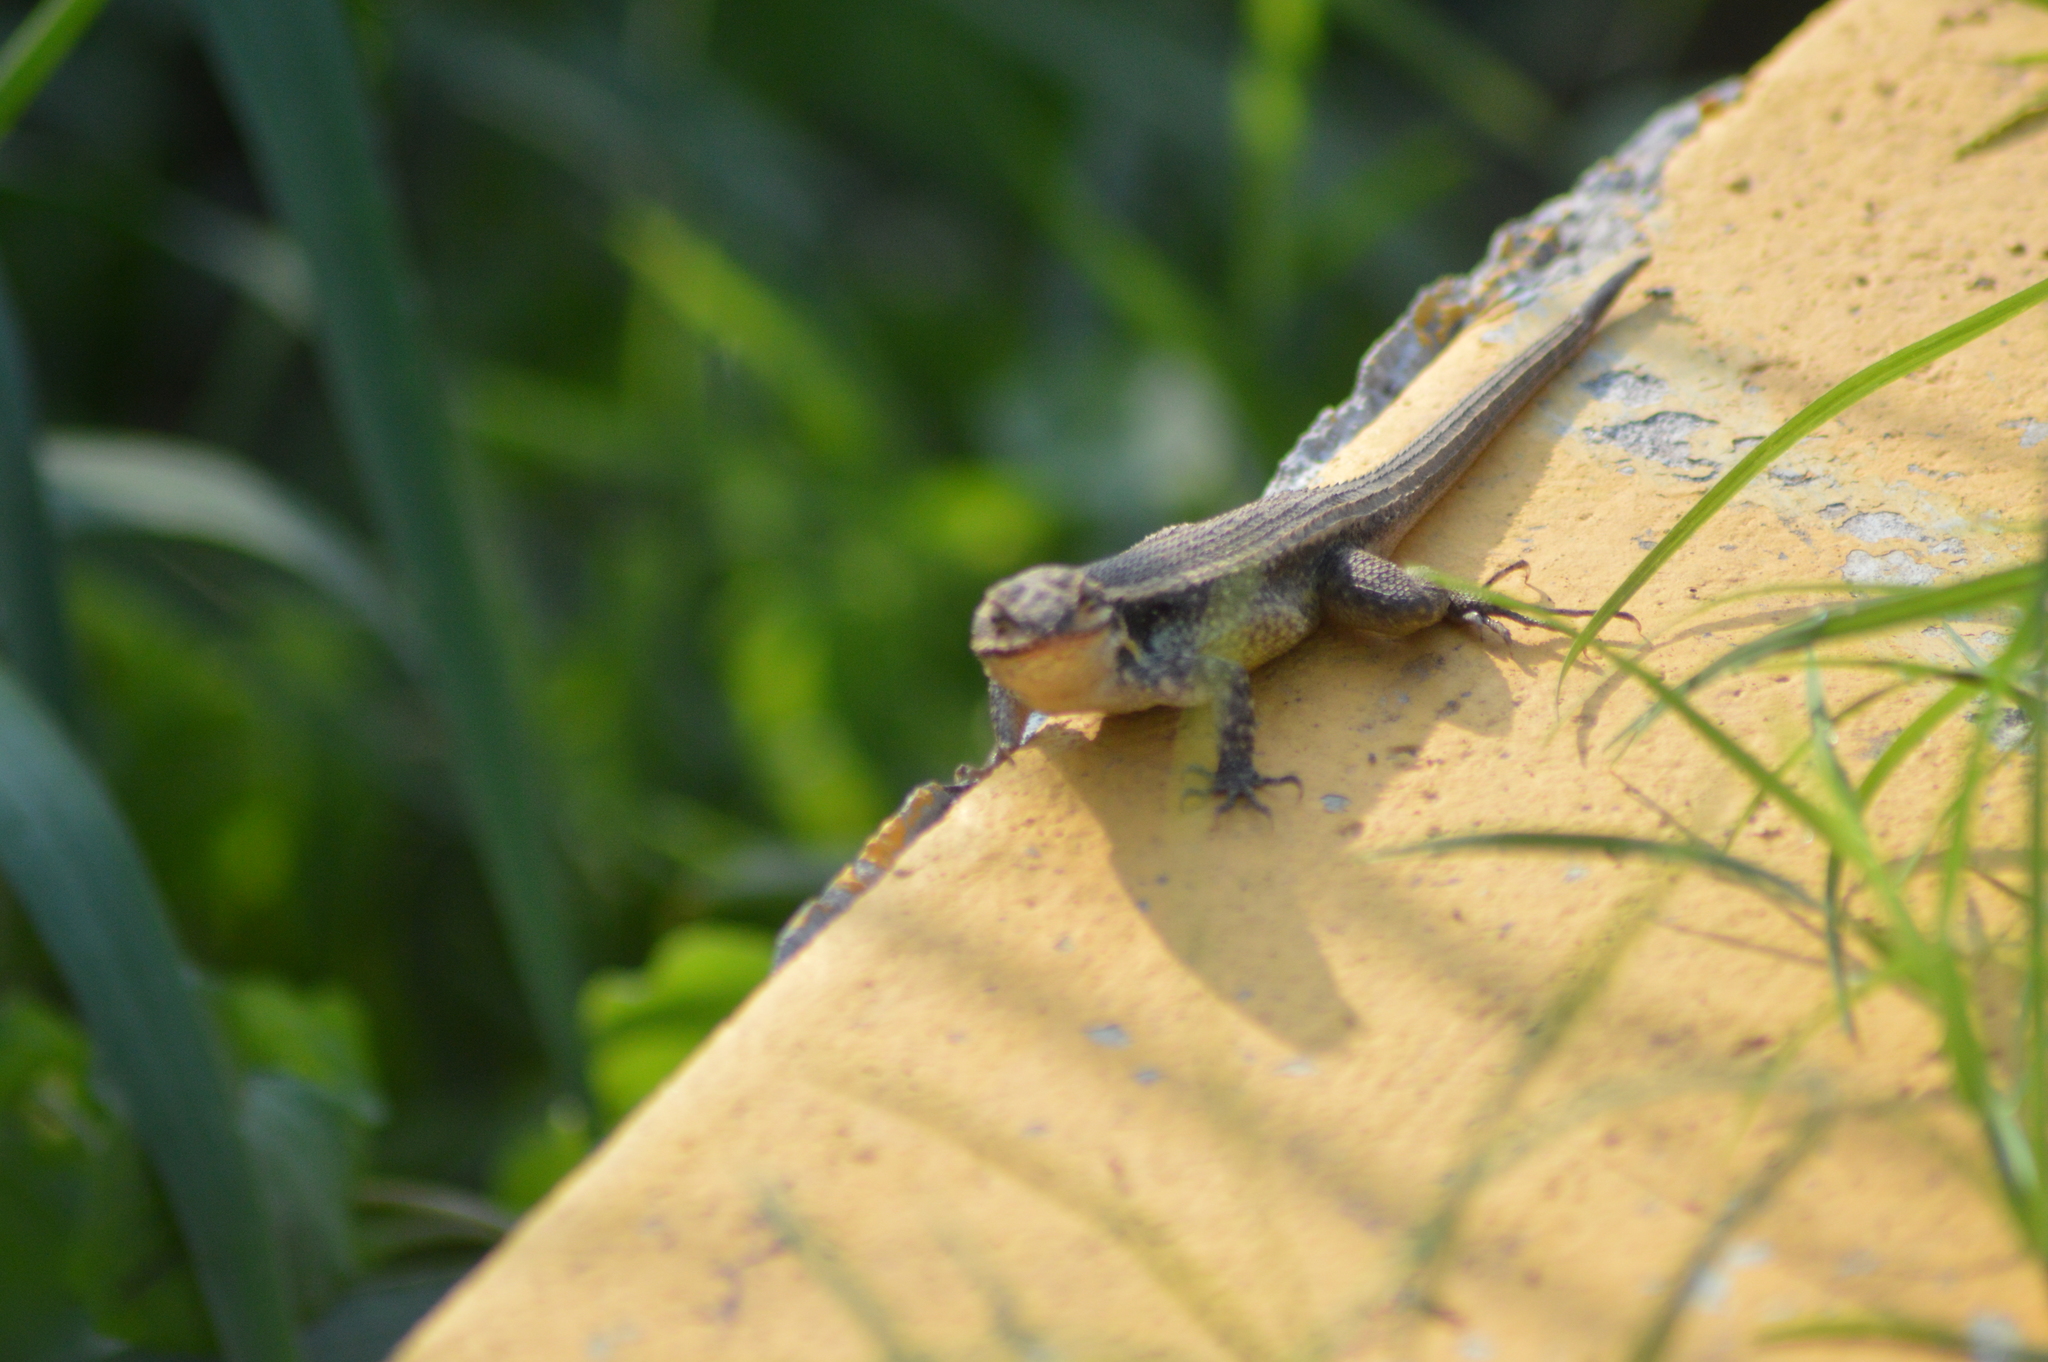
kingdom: Animalia
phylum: Chordata
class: Squamata
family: Phrynosomatidae
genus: Sceloporus
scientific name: Sceloporus variabilis
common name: Rosebelly lizard
